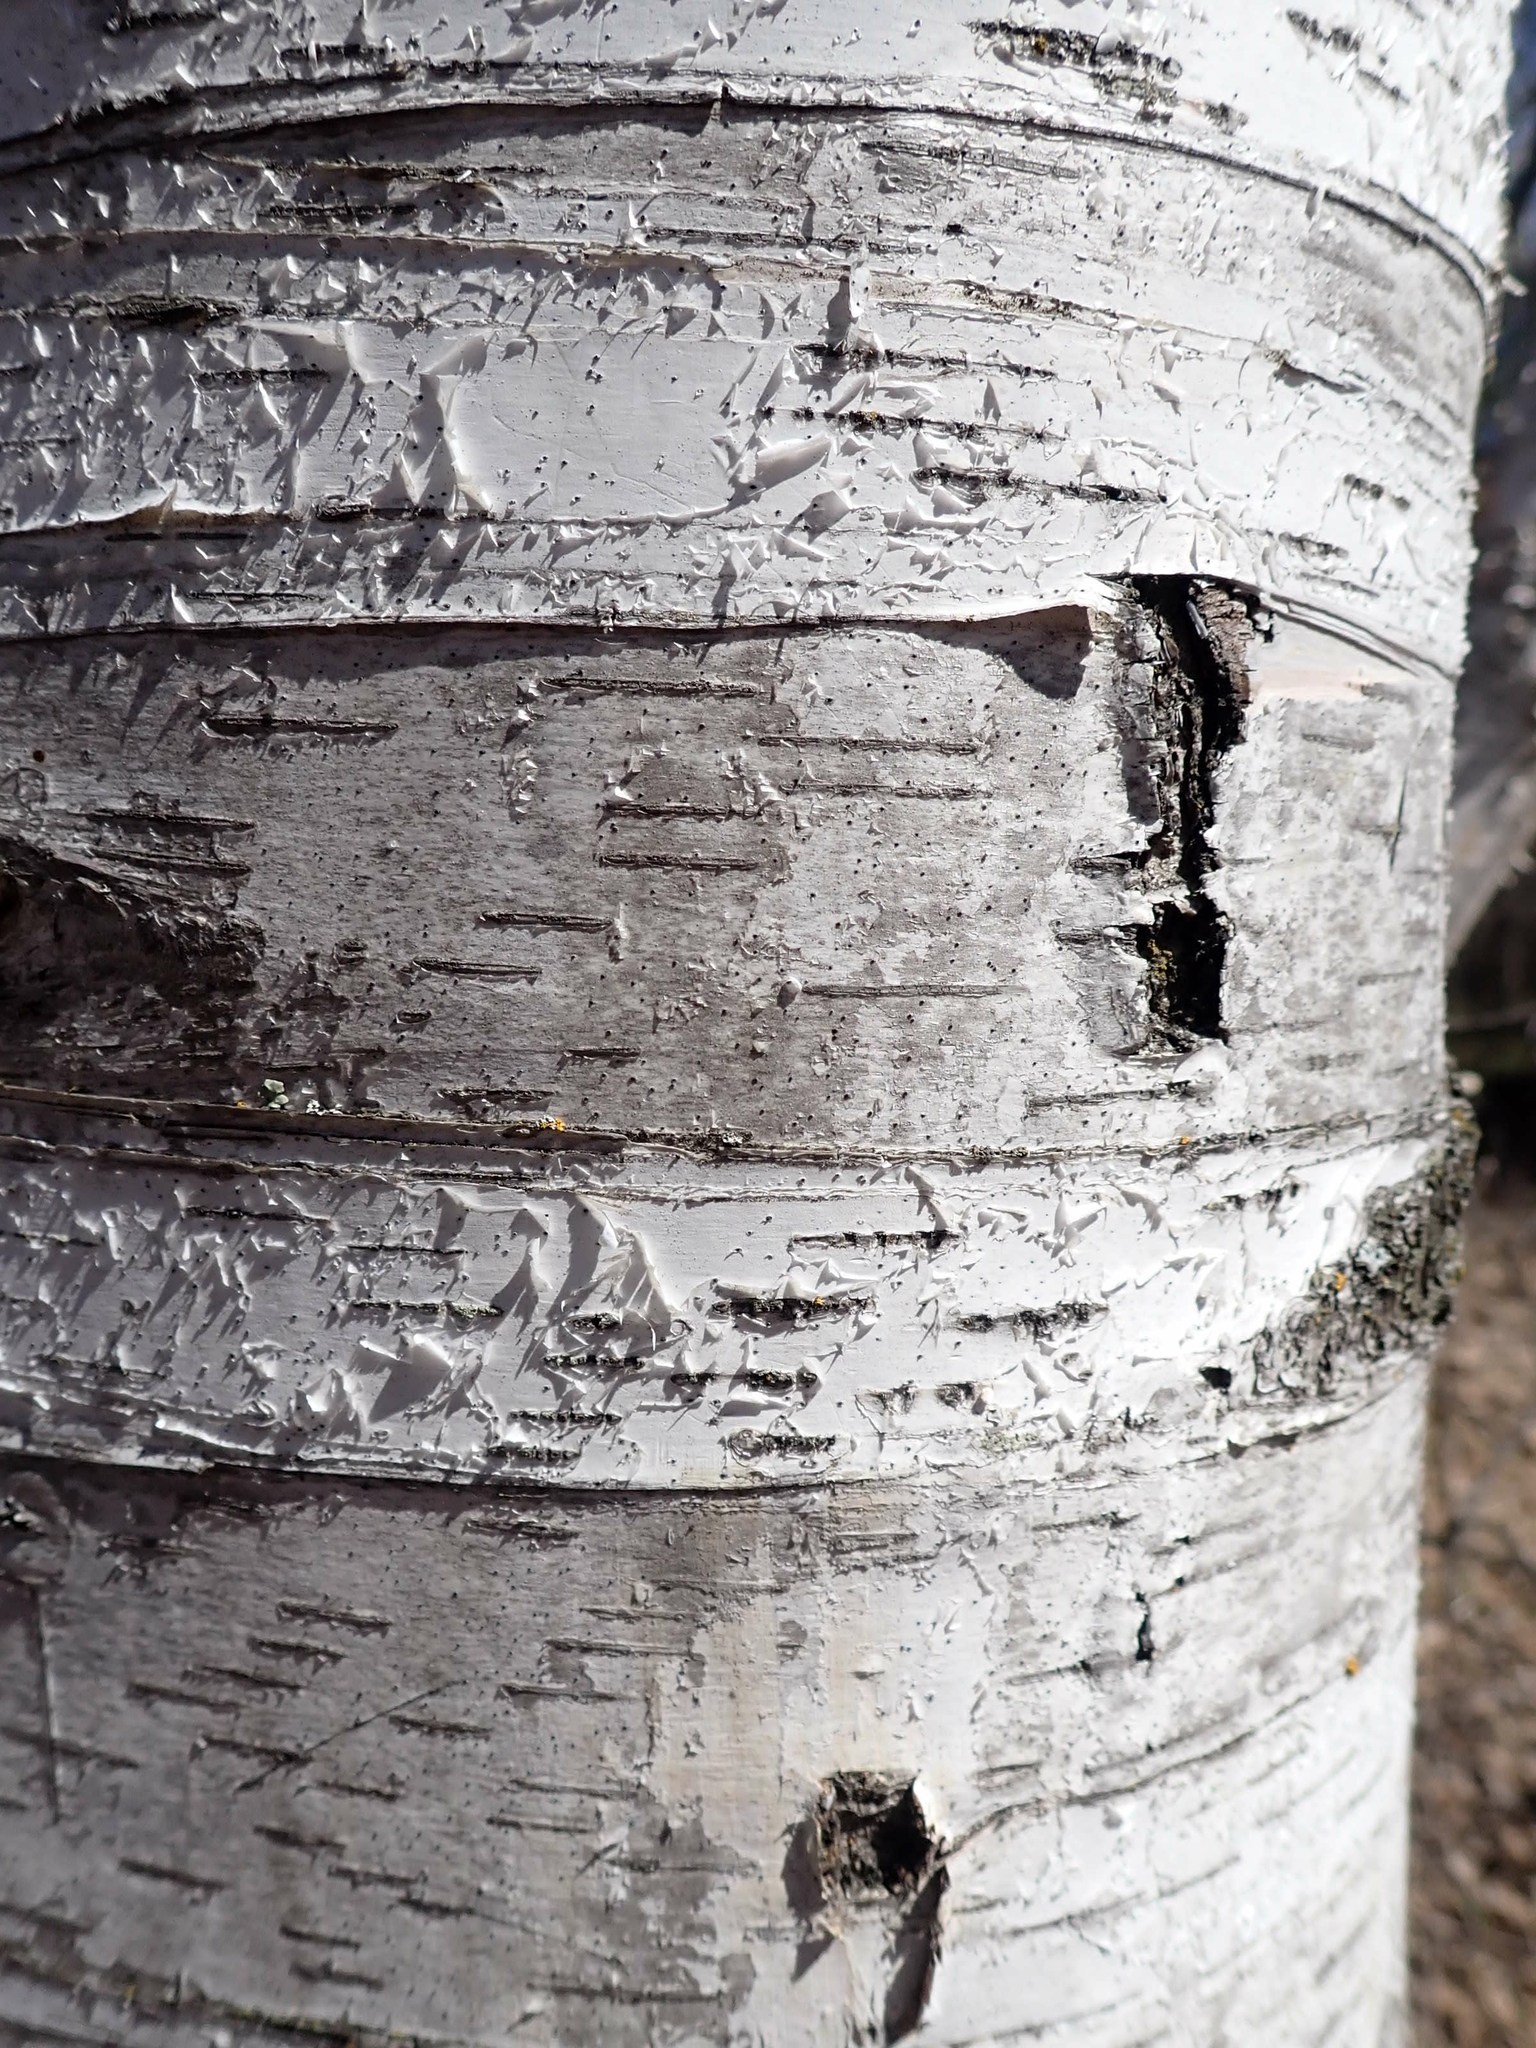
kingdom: Plantae
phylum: Tracheophyta
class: Magnoliopsida
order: Fagales
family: Betulaceae
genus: Betula
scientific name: Betula papyrifera
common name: Paper birch
